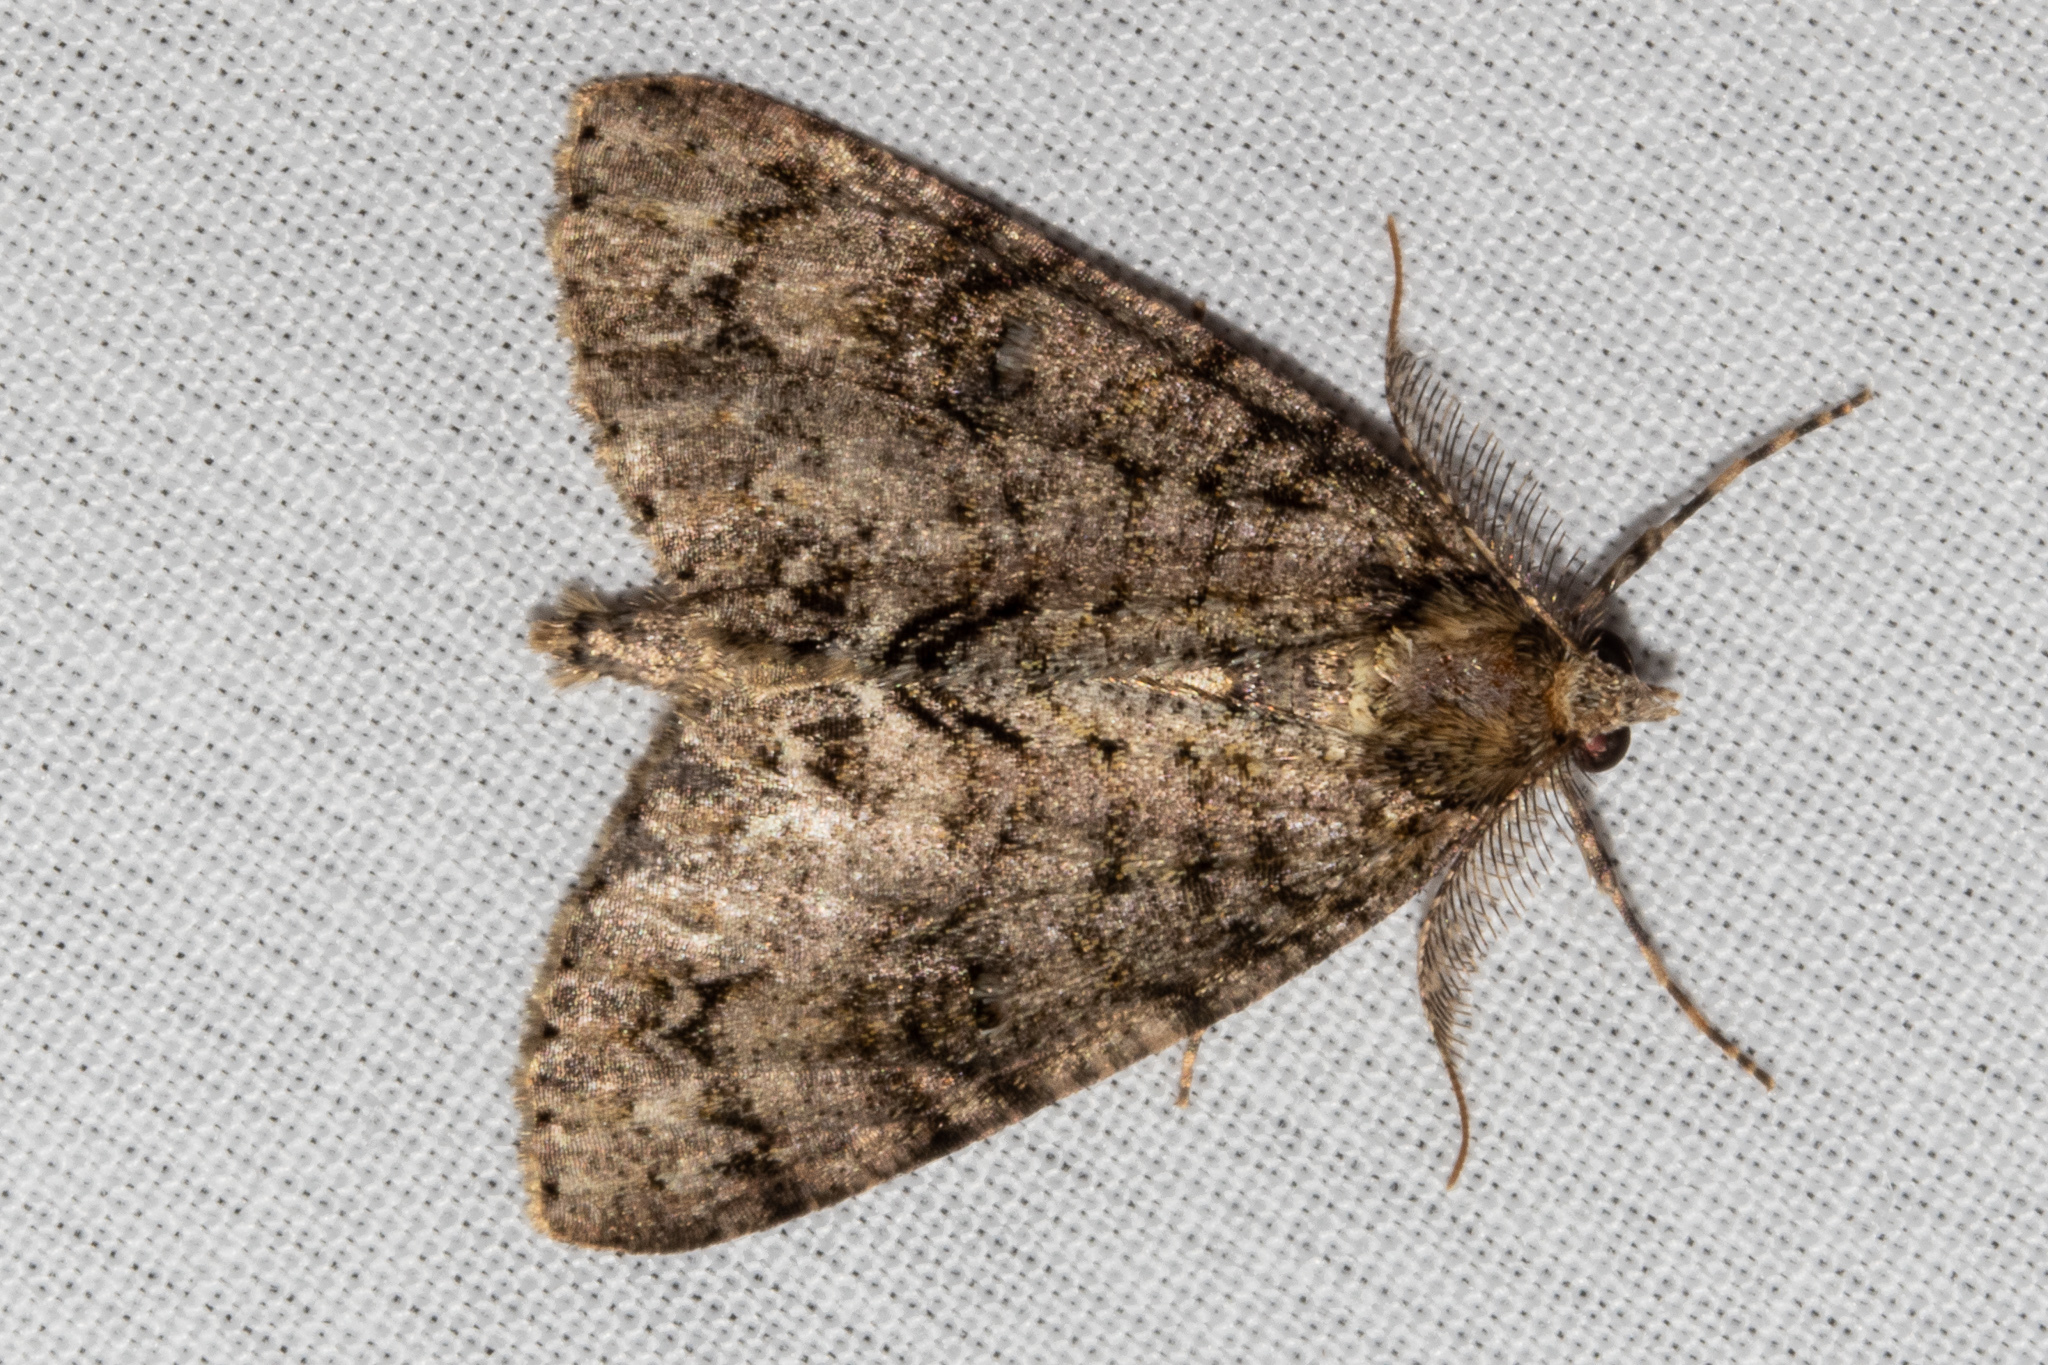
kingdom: Animalia
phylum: Arthropoda
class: Insecta
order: Lepidoptera
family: Geometridae
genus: Pseudocoremia
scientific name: Pseudocoremia suavis
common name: Common forest looper
